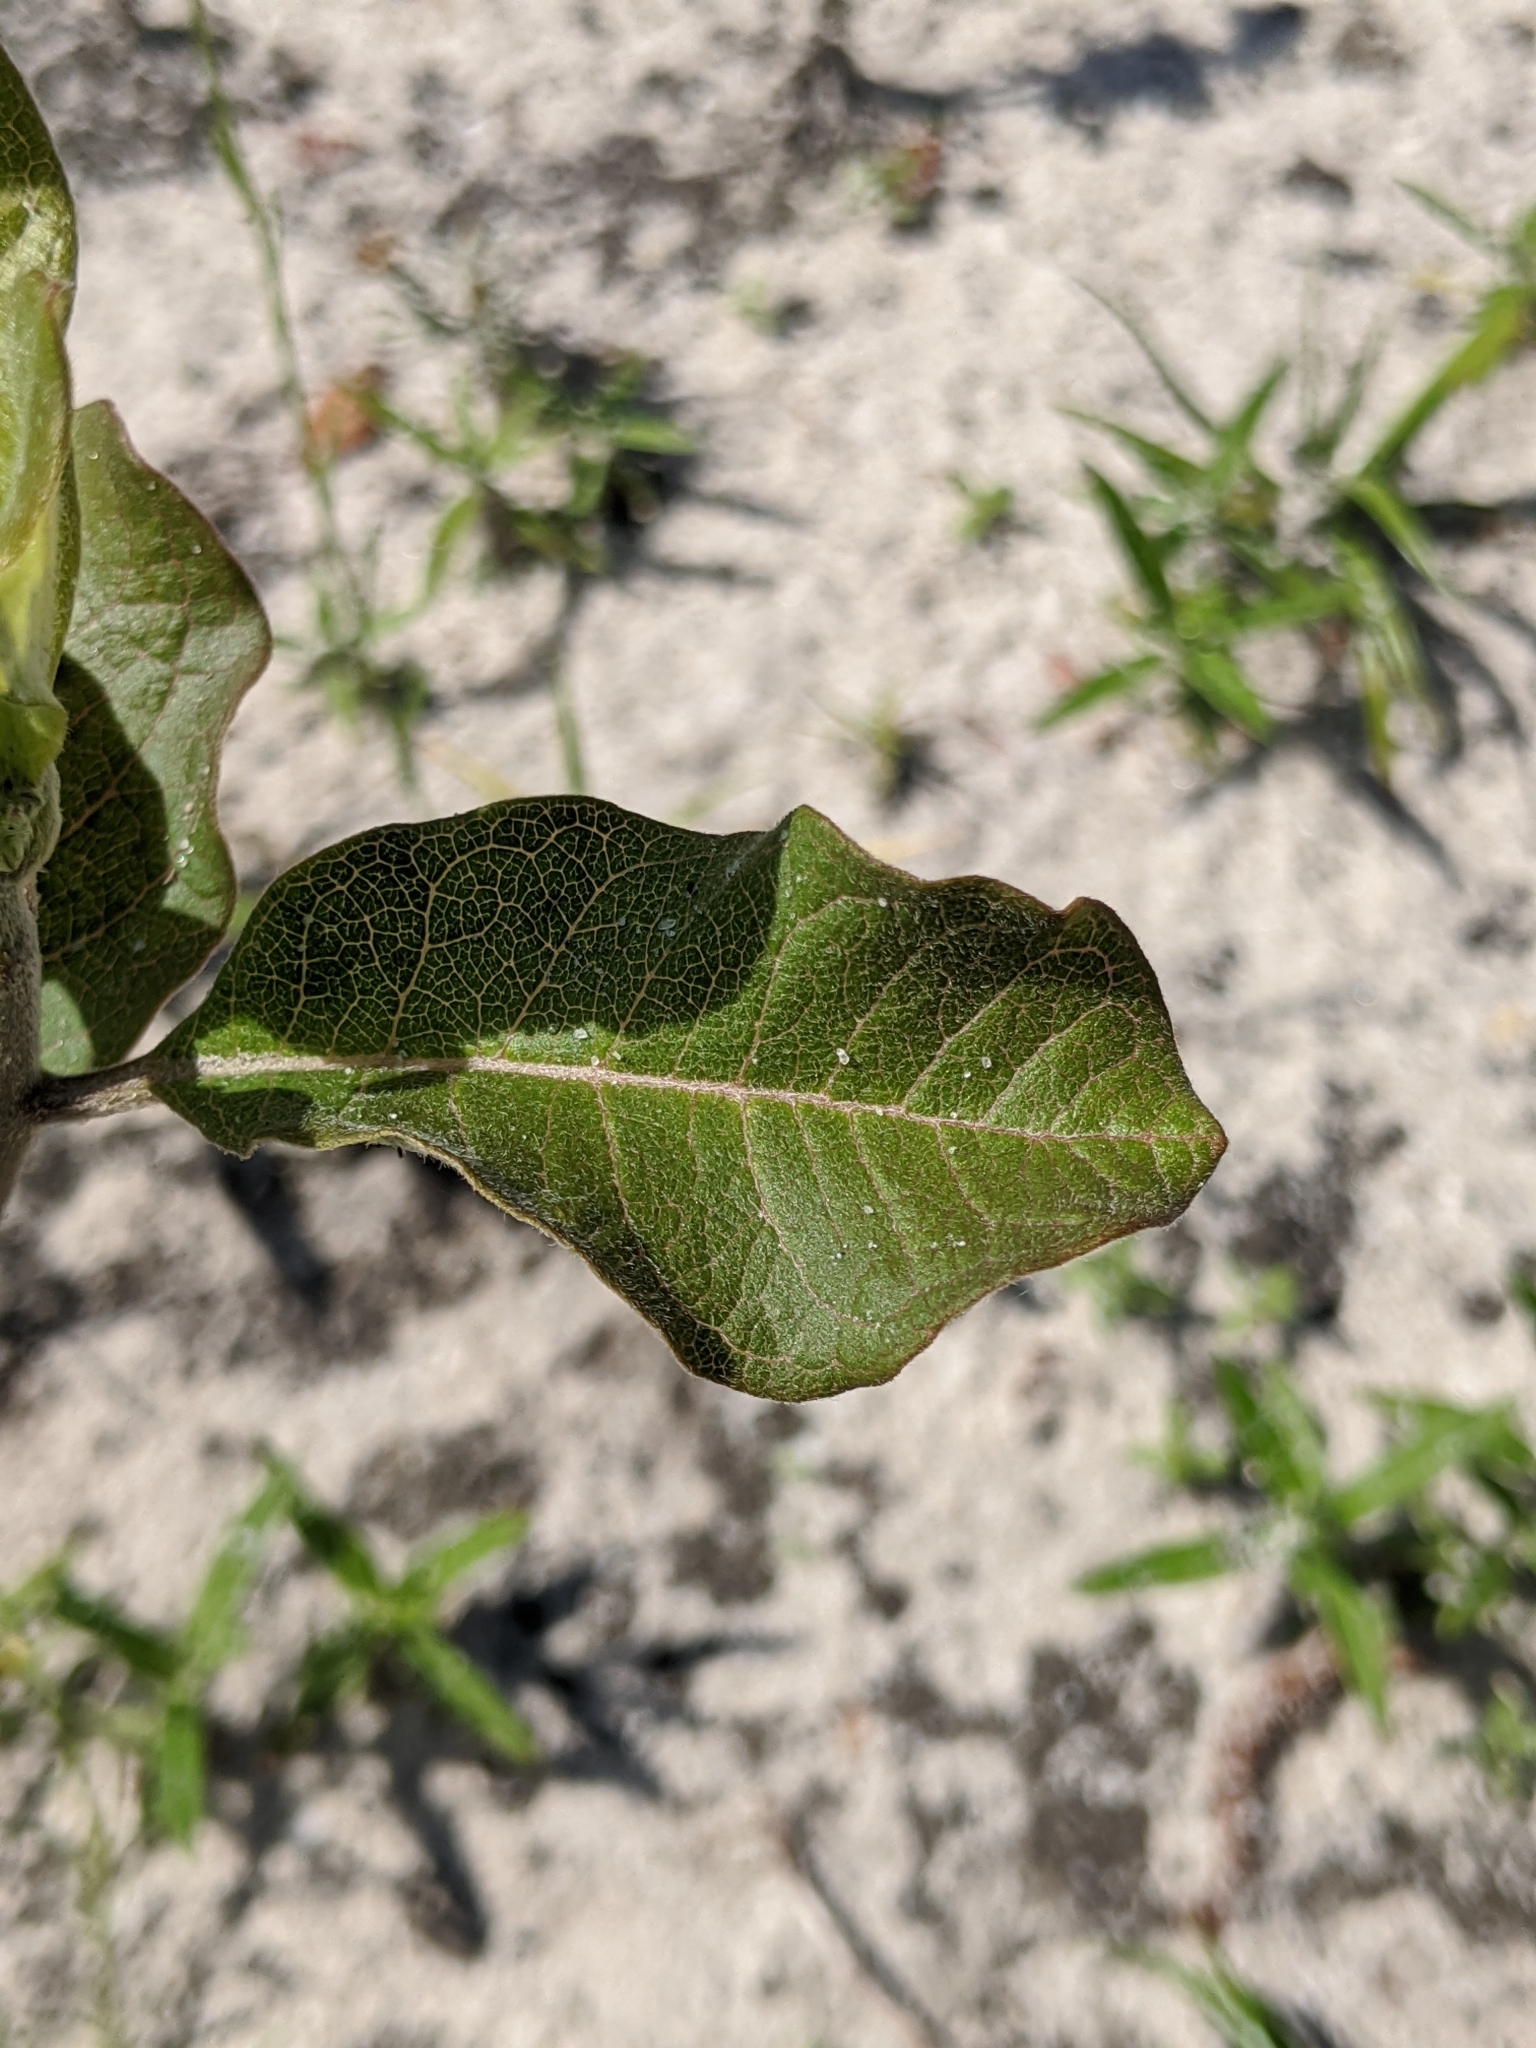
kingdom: Plantae
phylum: Tracheophyta
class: Magnoliopsida
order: Gentianales
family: Apocynaceae
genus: Asclepias
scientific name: Asclepias tomentosa
